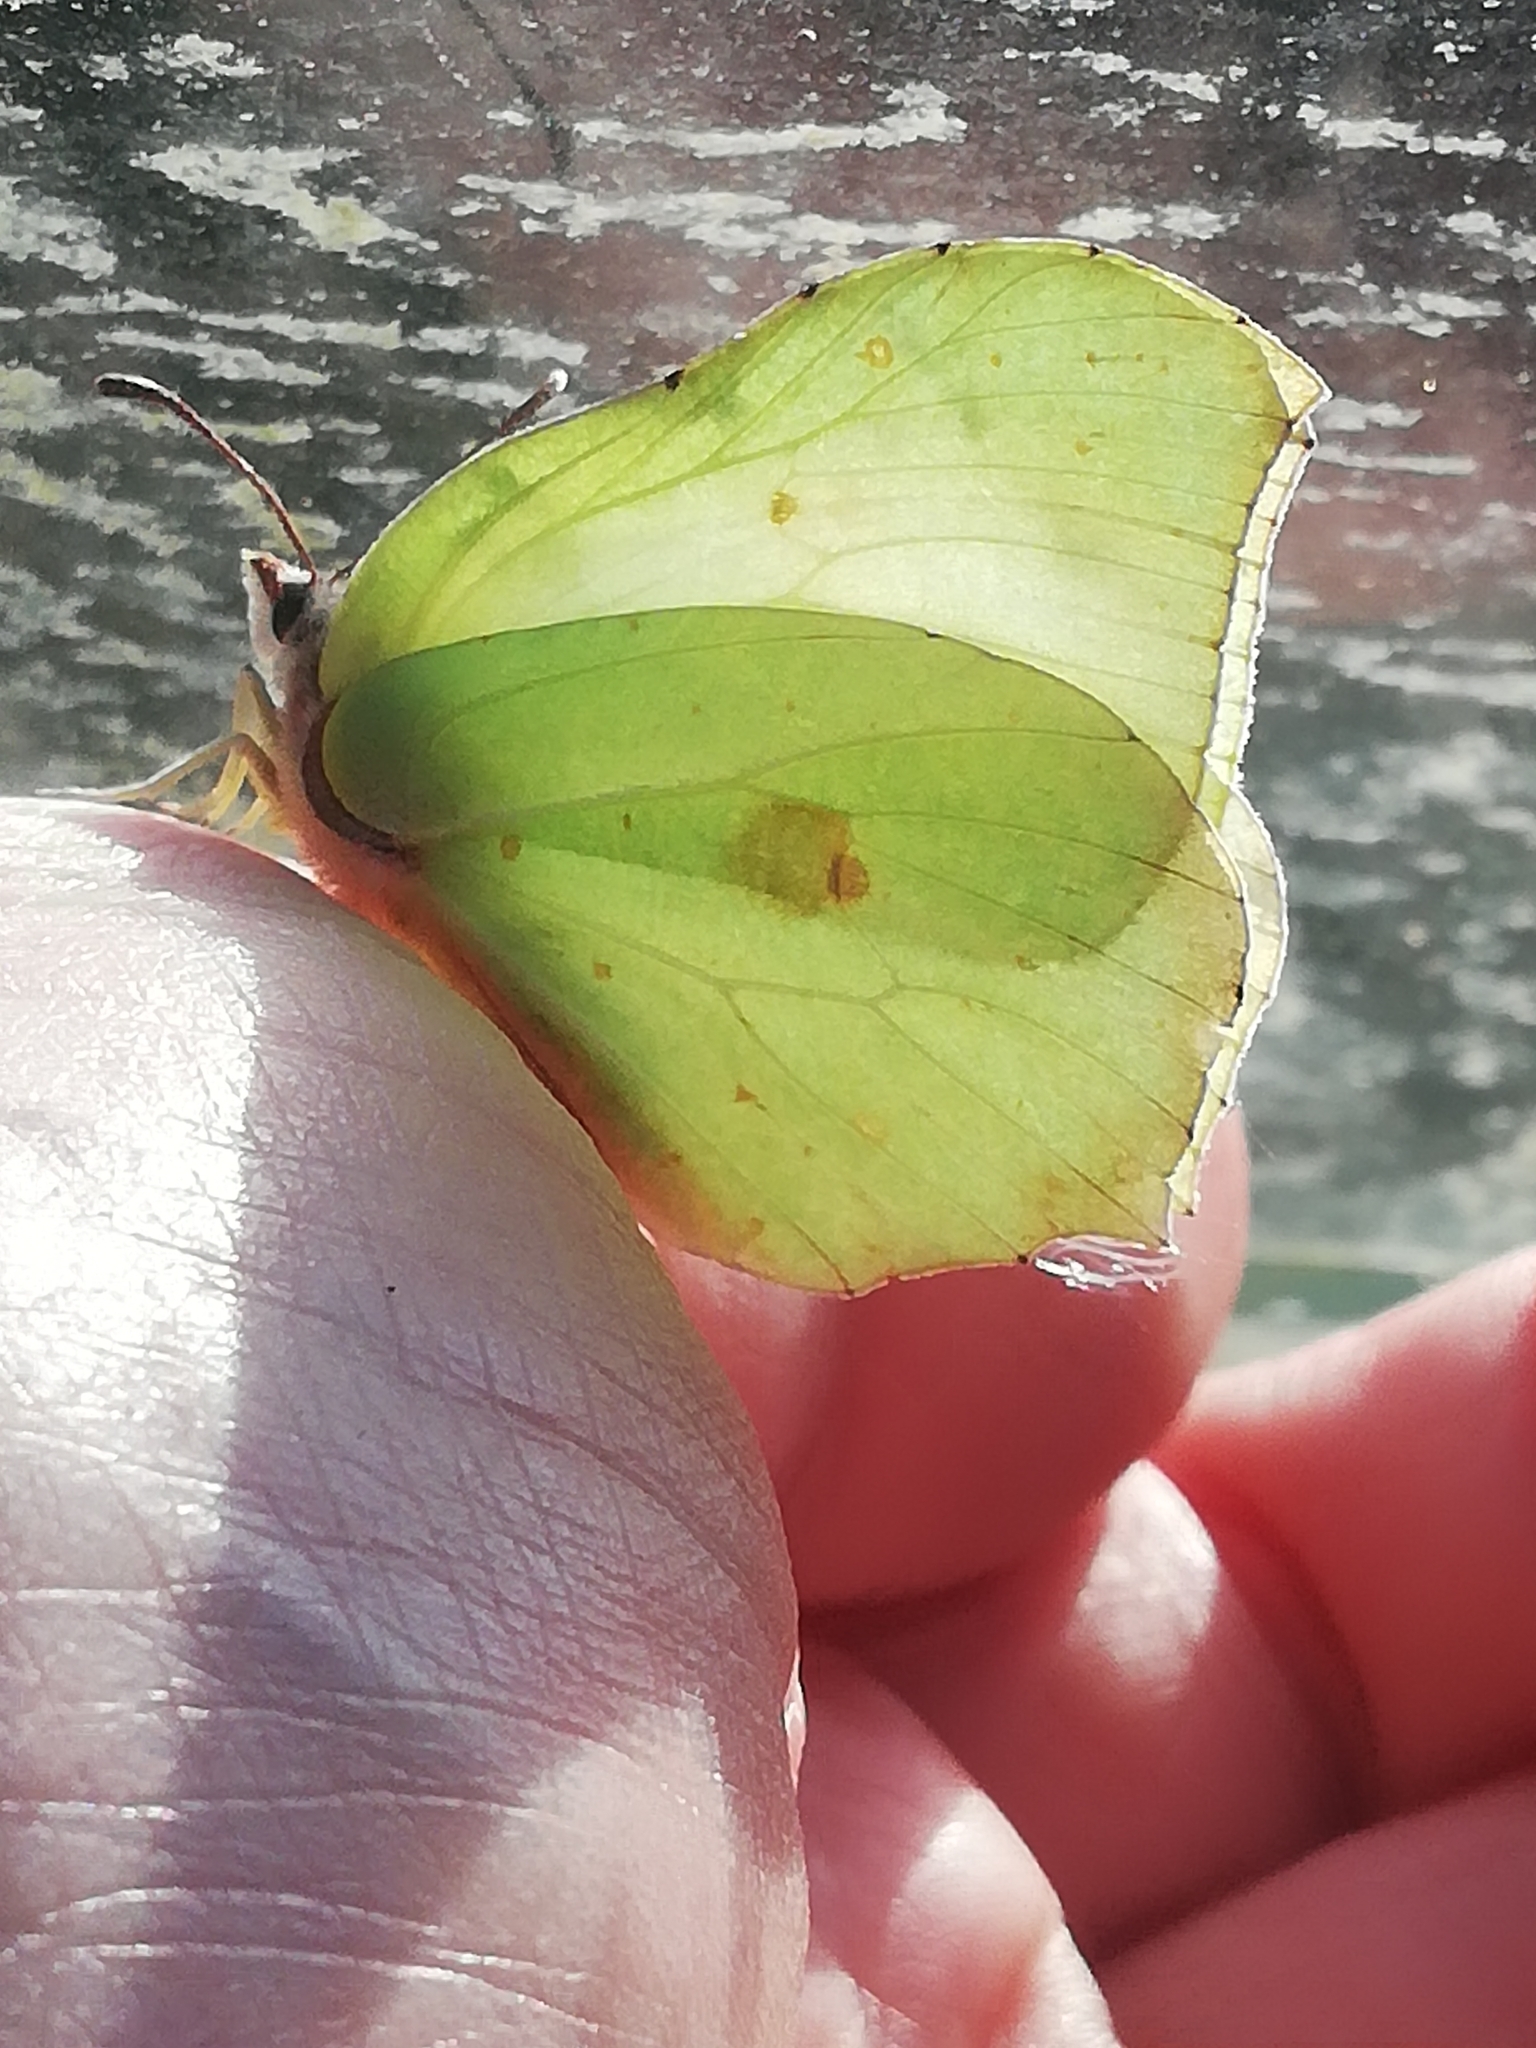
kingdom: Animalia
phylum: Arthropoda
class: Insecta
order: Lepidoptera
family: Pieridae
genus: Gonepteryx
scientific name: Gonepteryx rhamni
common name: Brimstone
